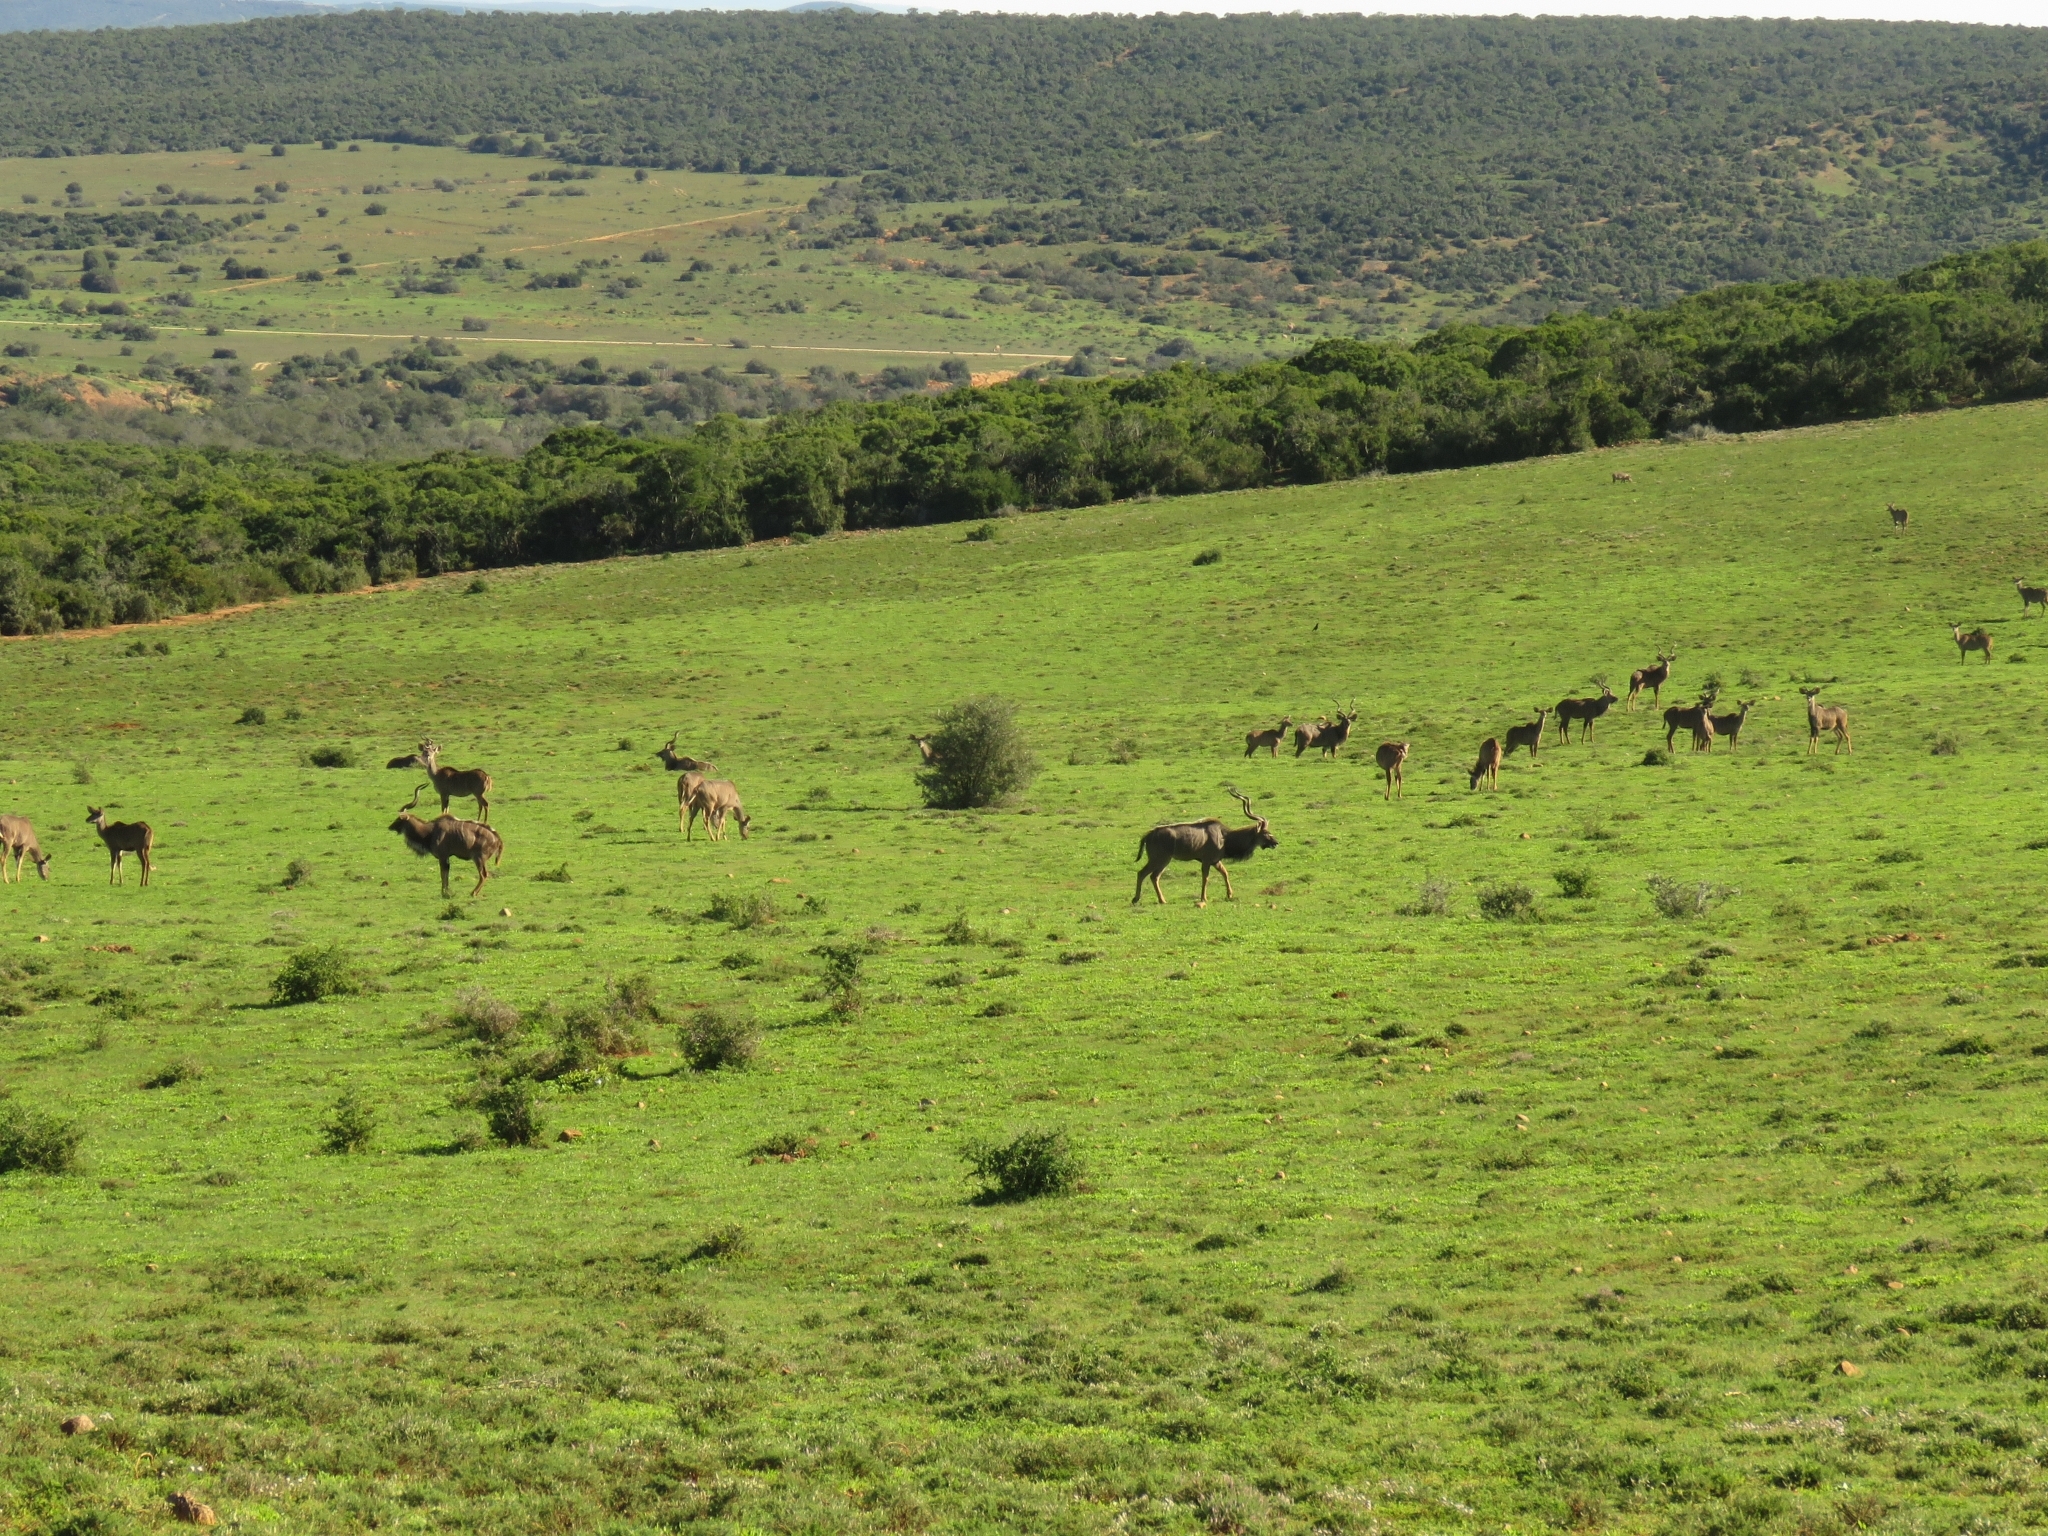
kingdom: Animalia
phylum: Chordata
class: Mammalia
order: Artiodactyla
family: Bovidae
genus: Tragelaphus
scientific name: Tragelaphus strepsiceros
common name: Greater kudu
